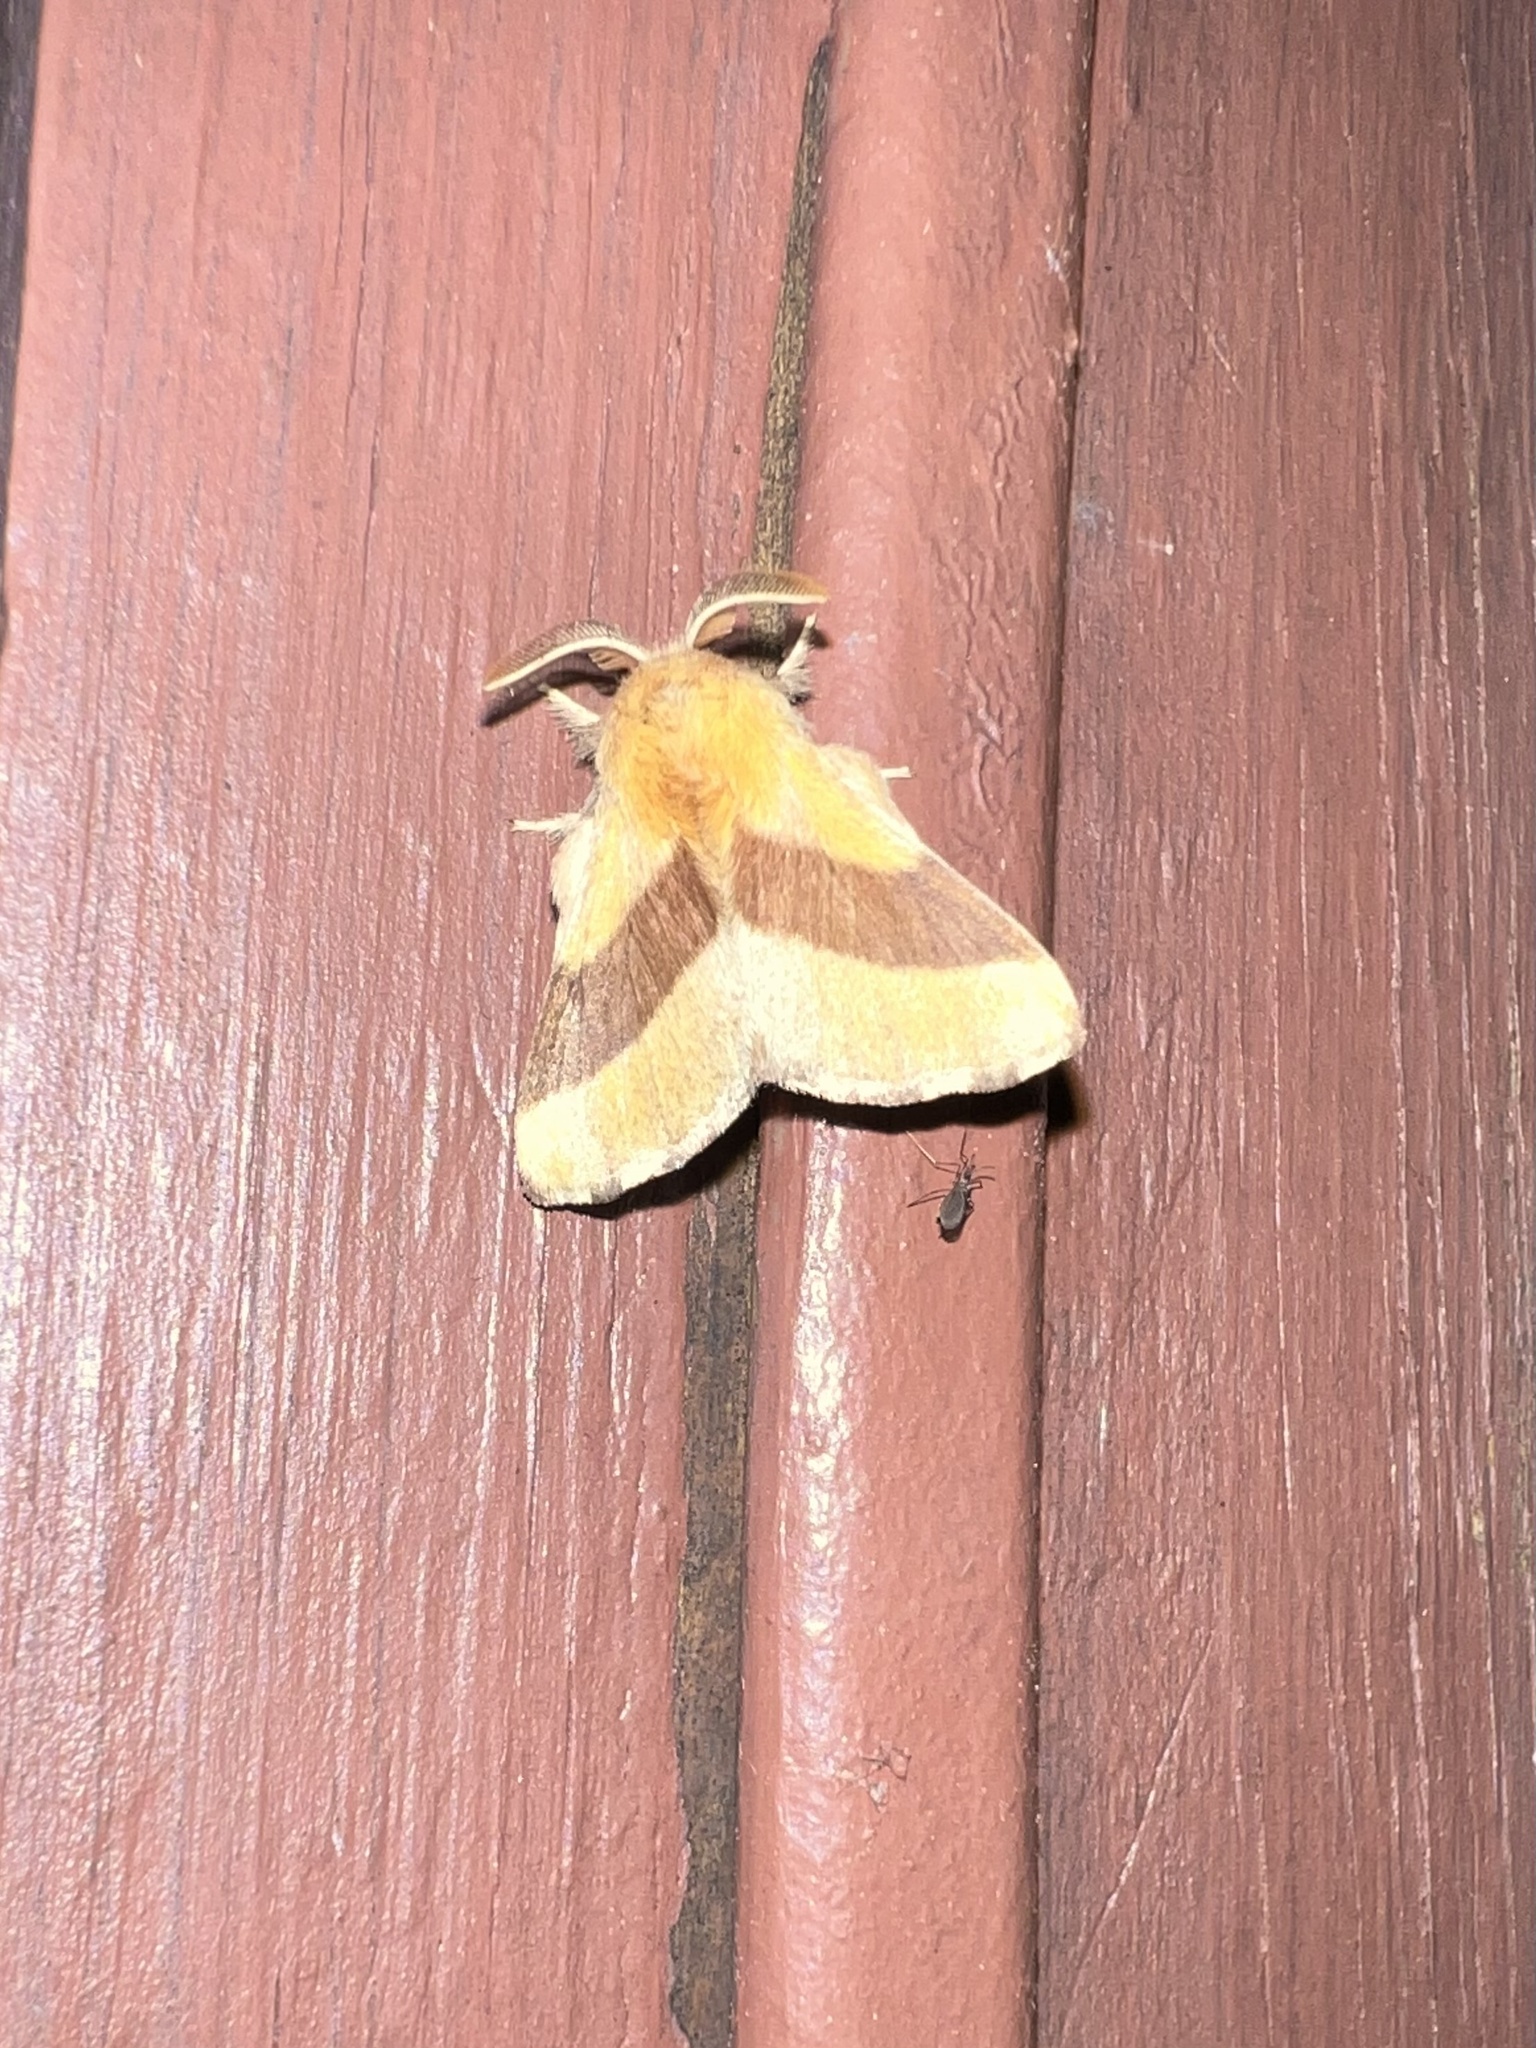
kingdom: Animalia
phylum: Arthropoda
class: Insecta
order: Lepidoptera
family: Lasiocampidae
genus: Malacosoma
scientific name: Malacosoma disstria
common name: Forest tent caterpillar
